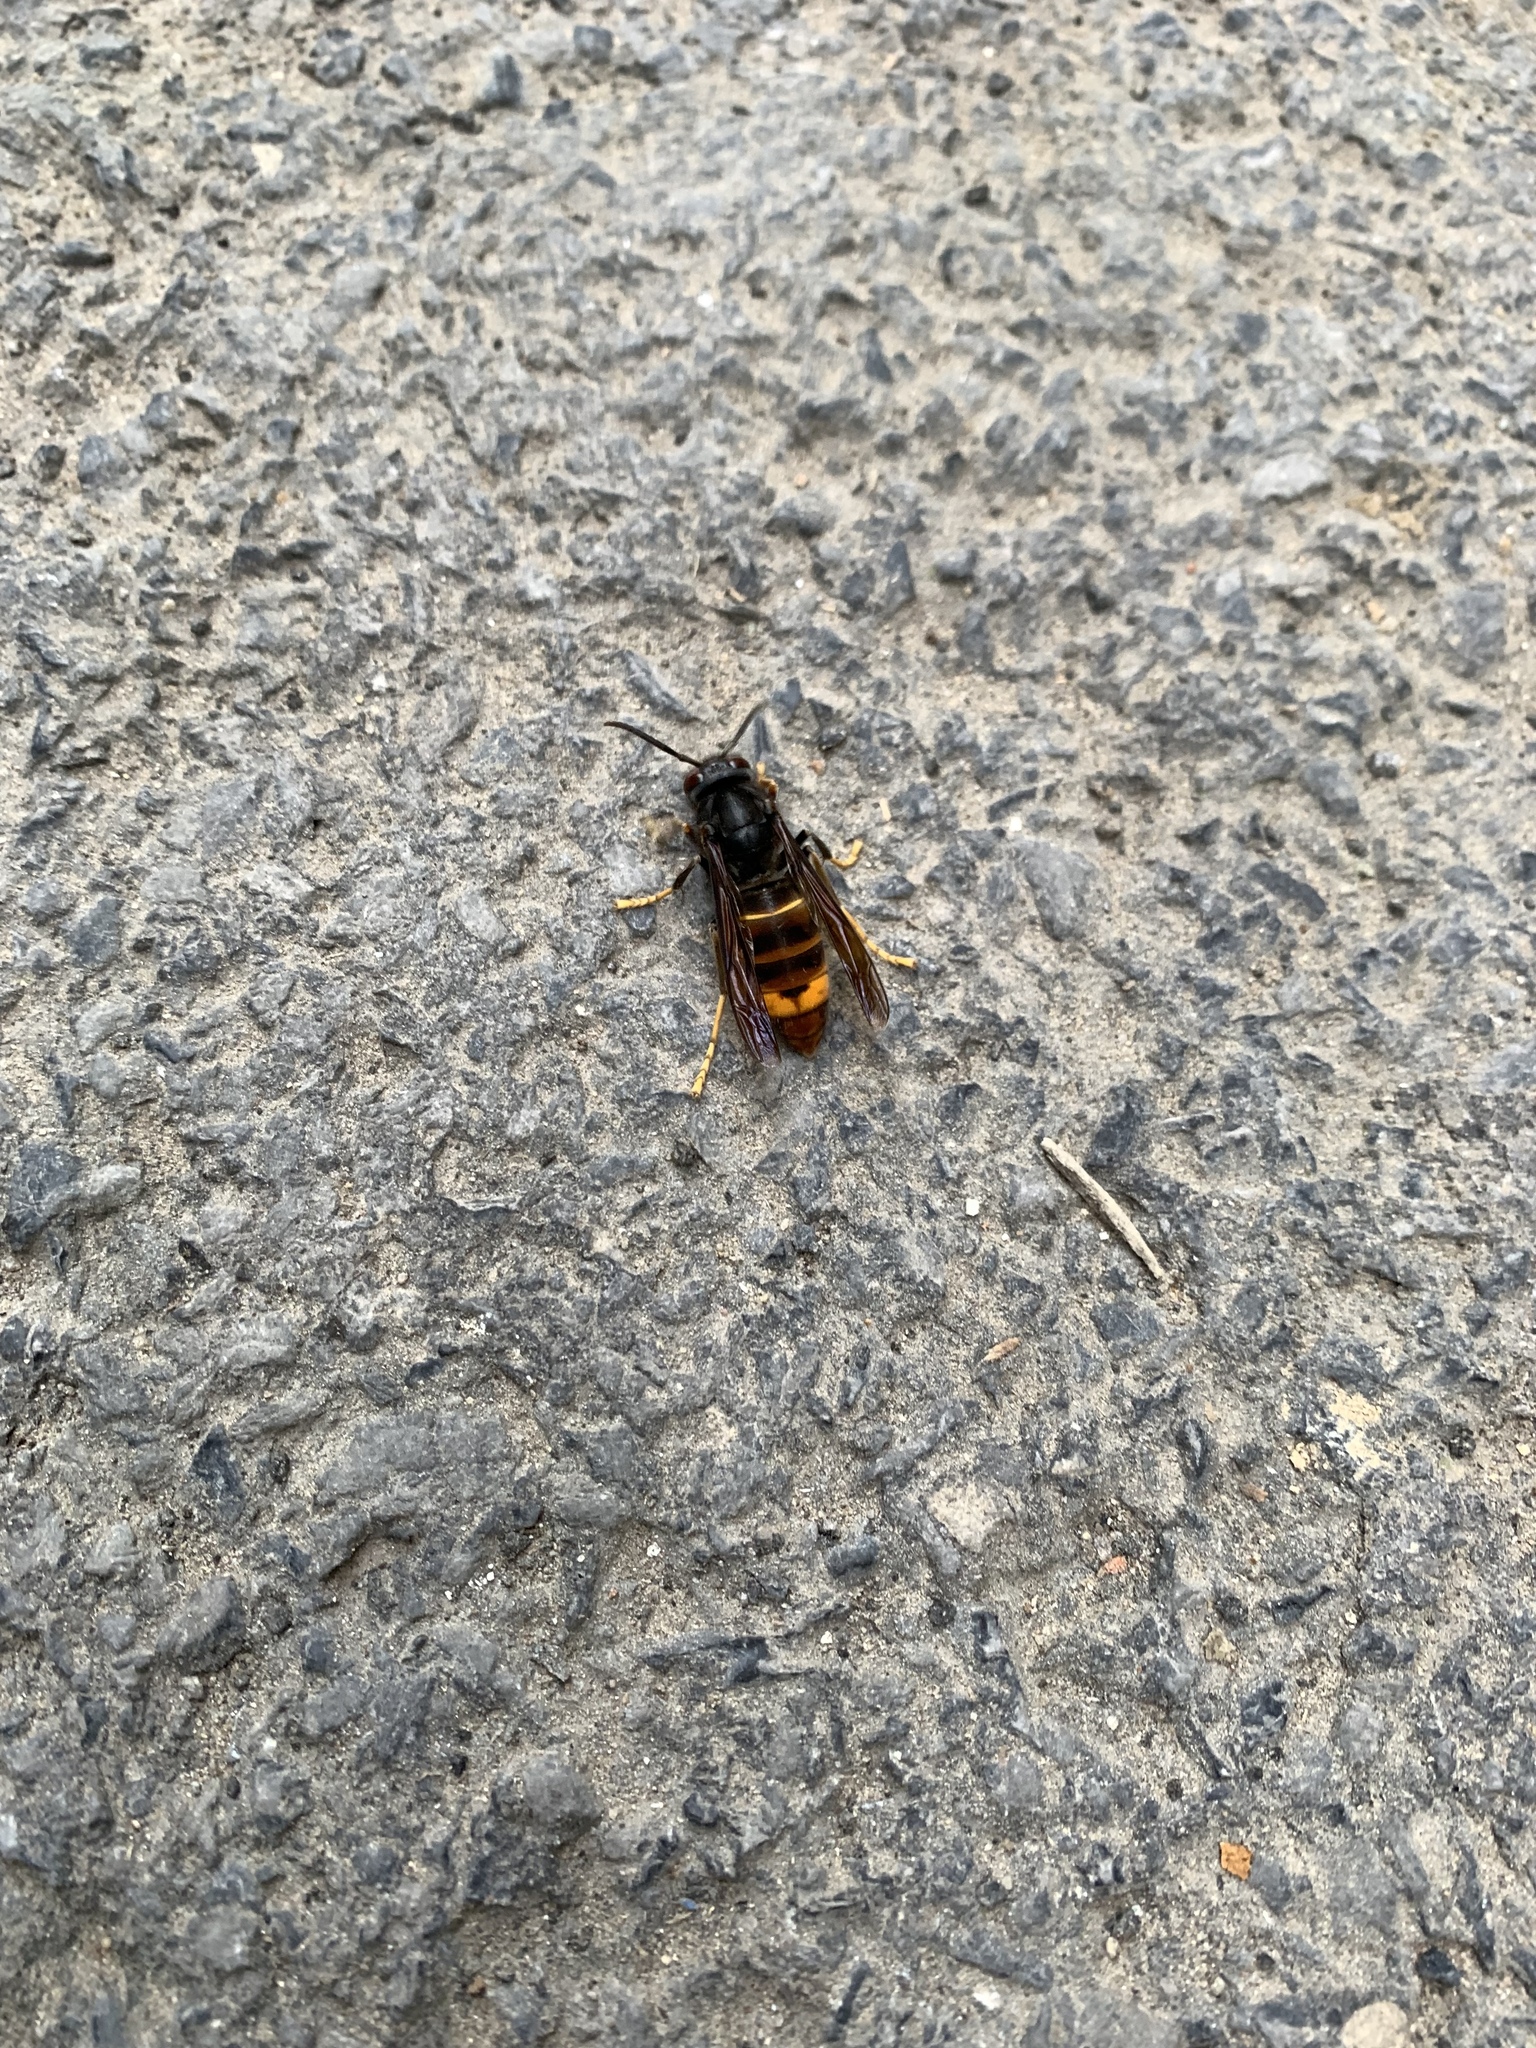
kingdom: Animalia
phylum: Arthropoda
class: Insecta
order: Hymenoptera
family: Vespidae
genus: Vespa
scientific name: Vespa velutina
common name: Asian hornet
